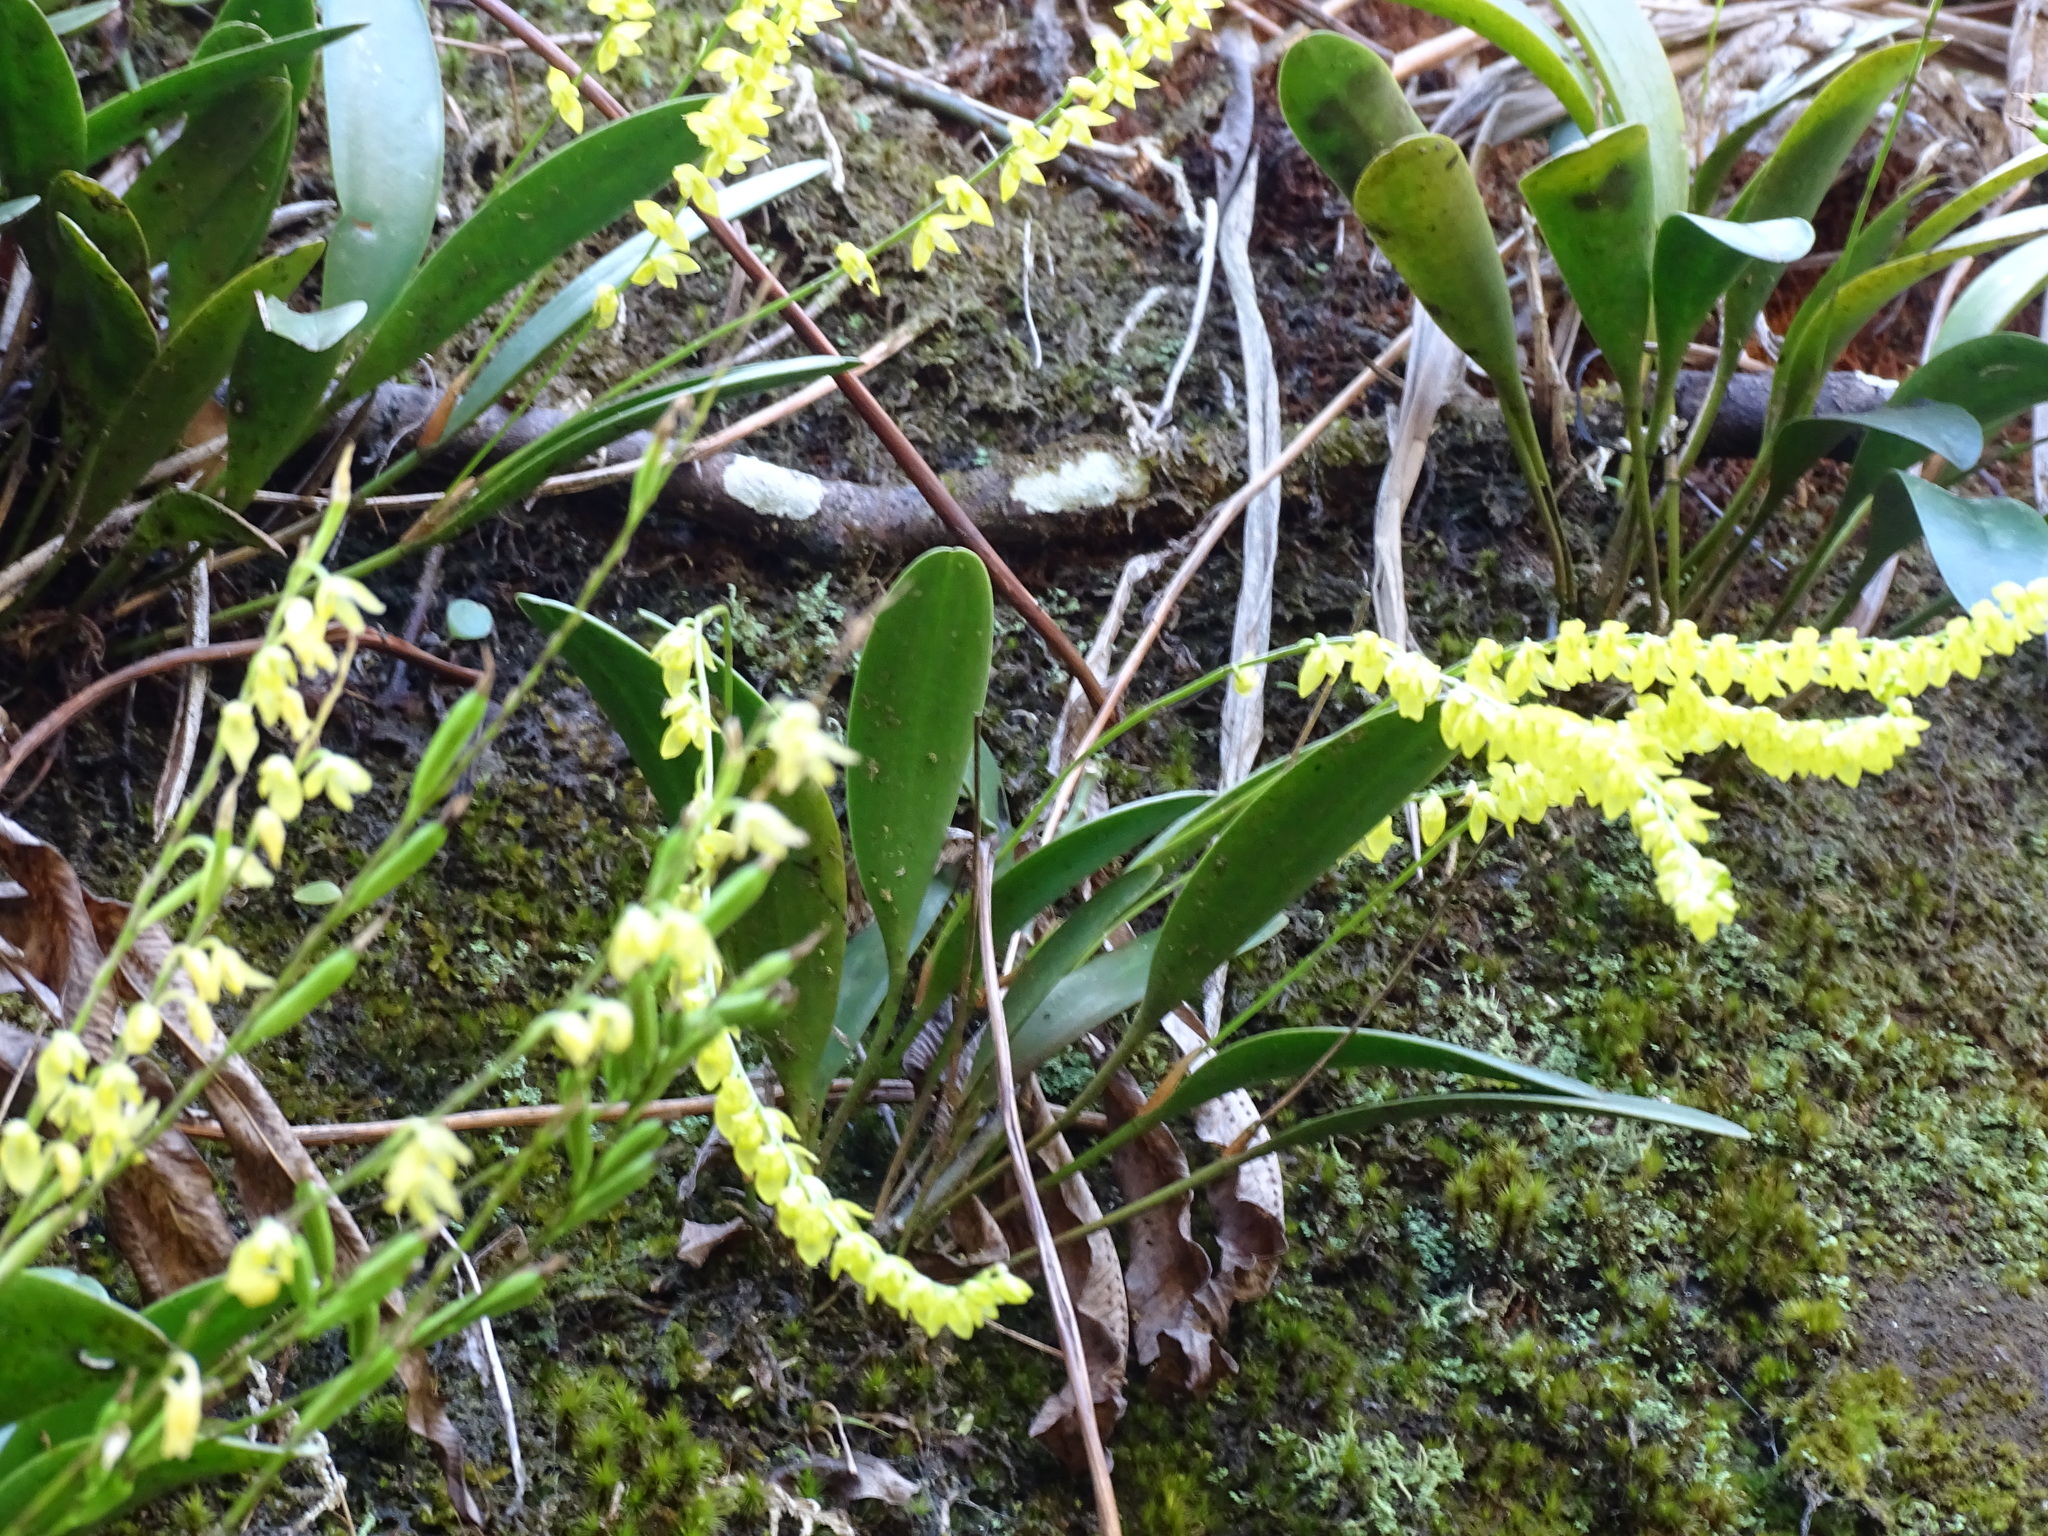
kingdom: Plantae
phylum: Tracheophyta
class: Liliopsida
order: Asparagales
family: Orchidaceae
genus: Pleurothallis
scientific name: Pleurothallis quadrifida
